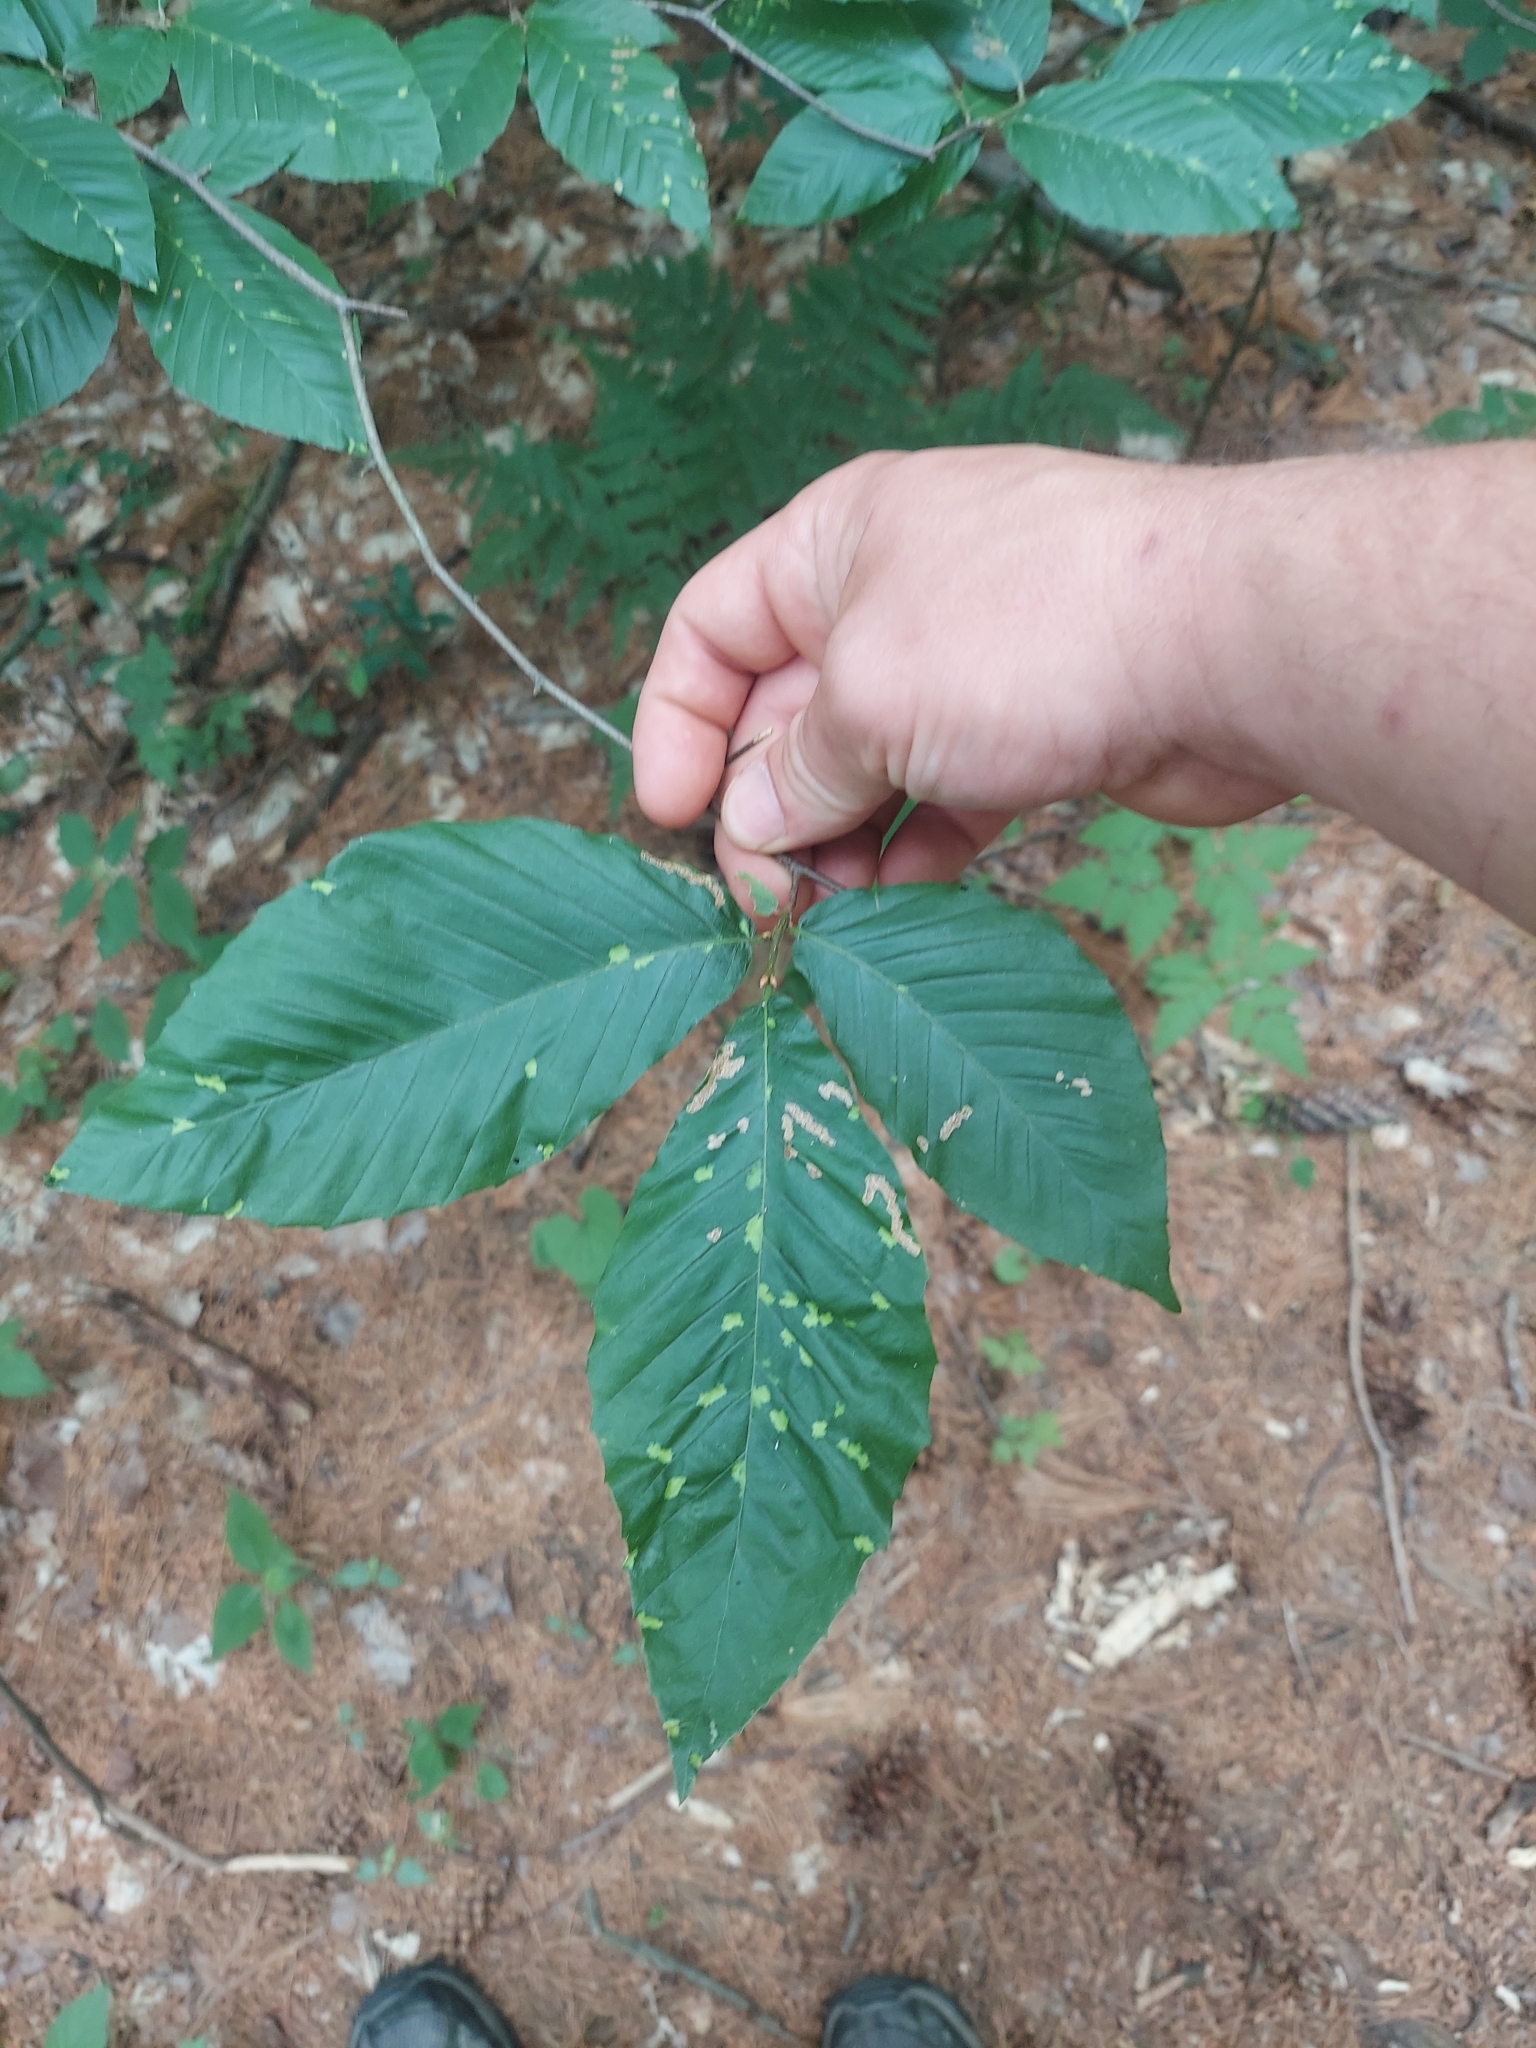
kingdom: Plantae
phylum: Tracheophyta
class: Magnoliopsida
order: Fagales
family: Fagaceae
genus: Fagus
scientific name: Fagus grandifolia
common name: American beech
